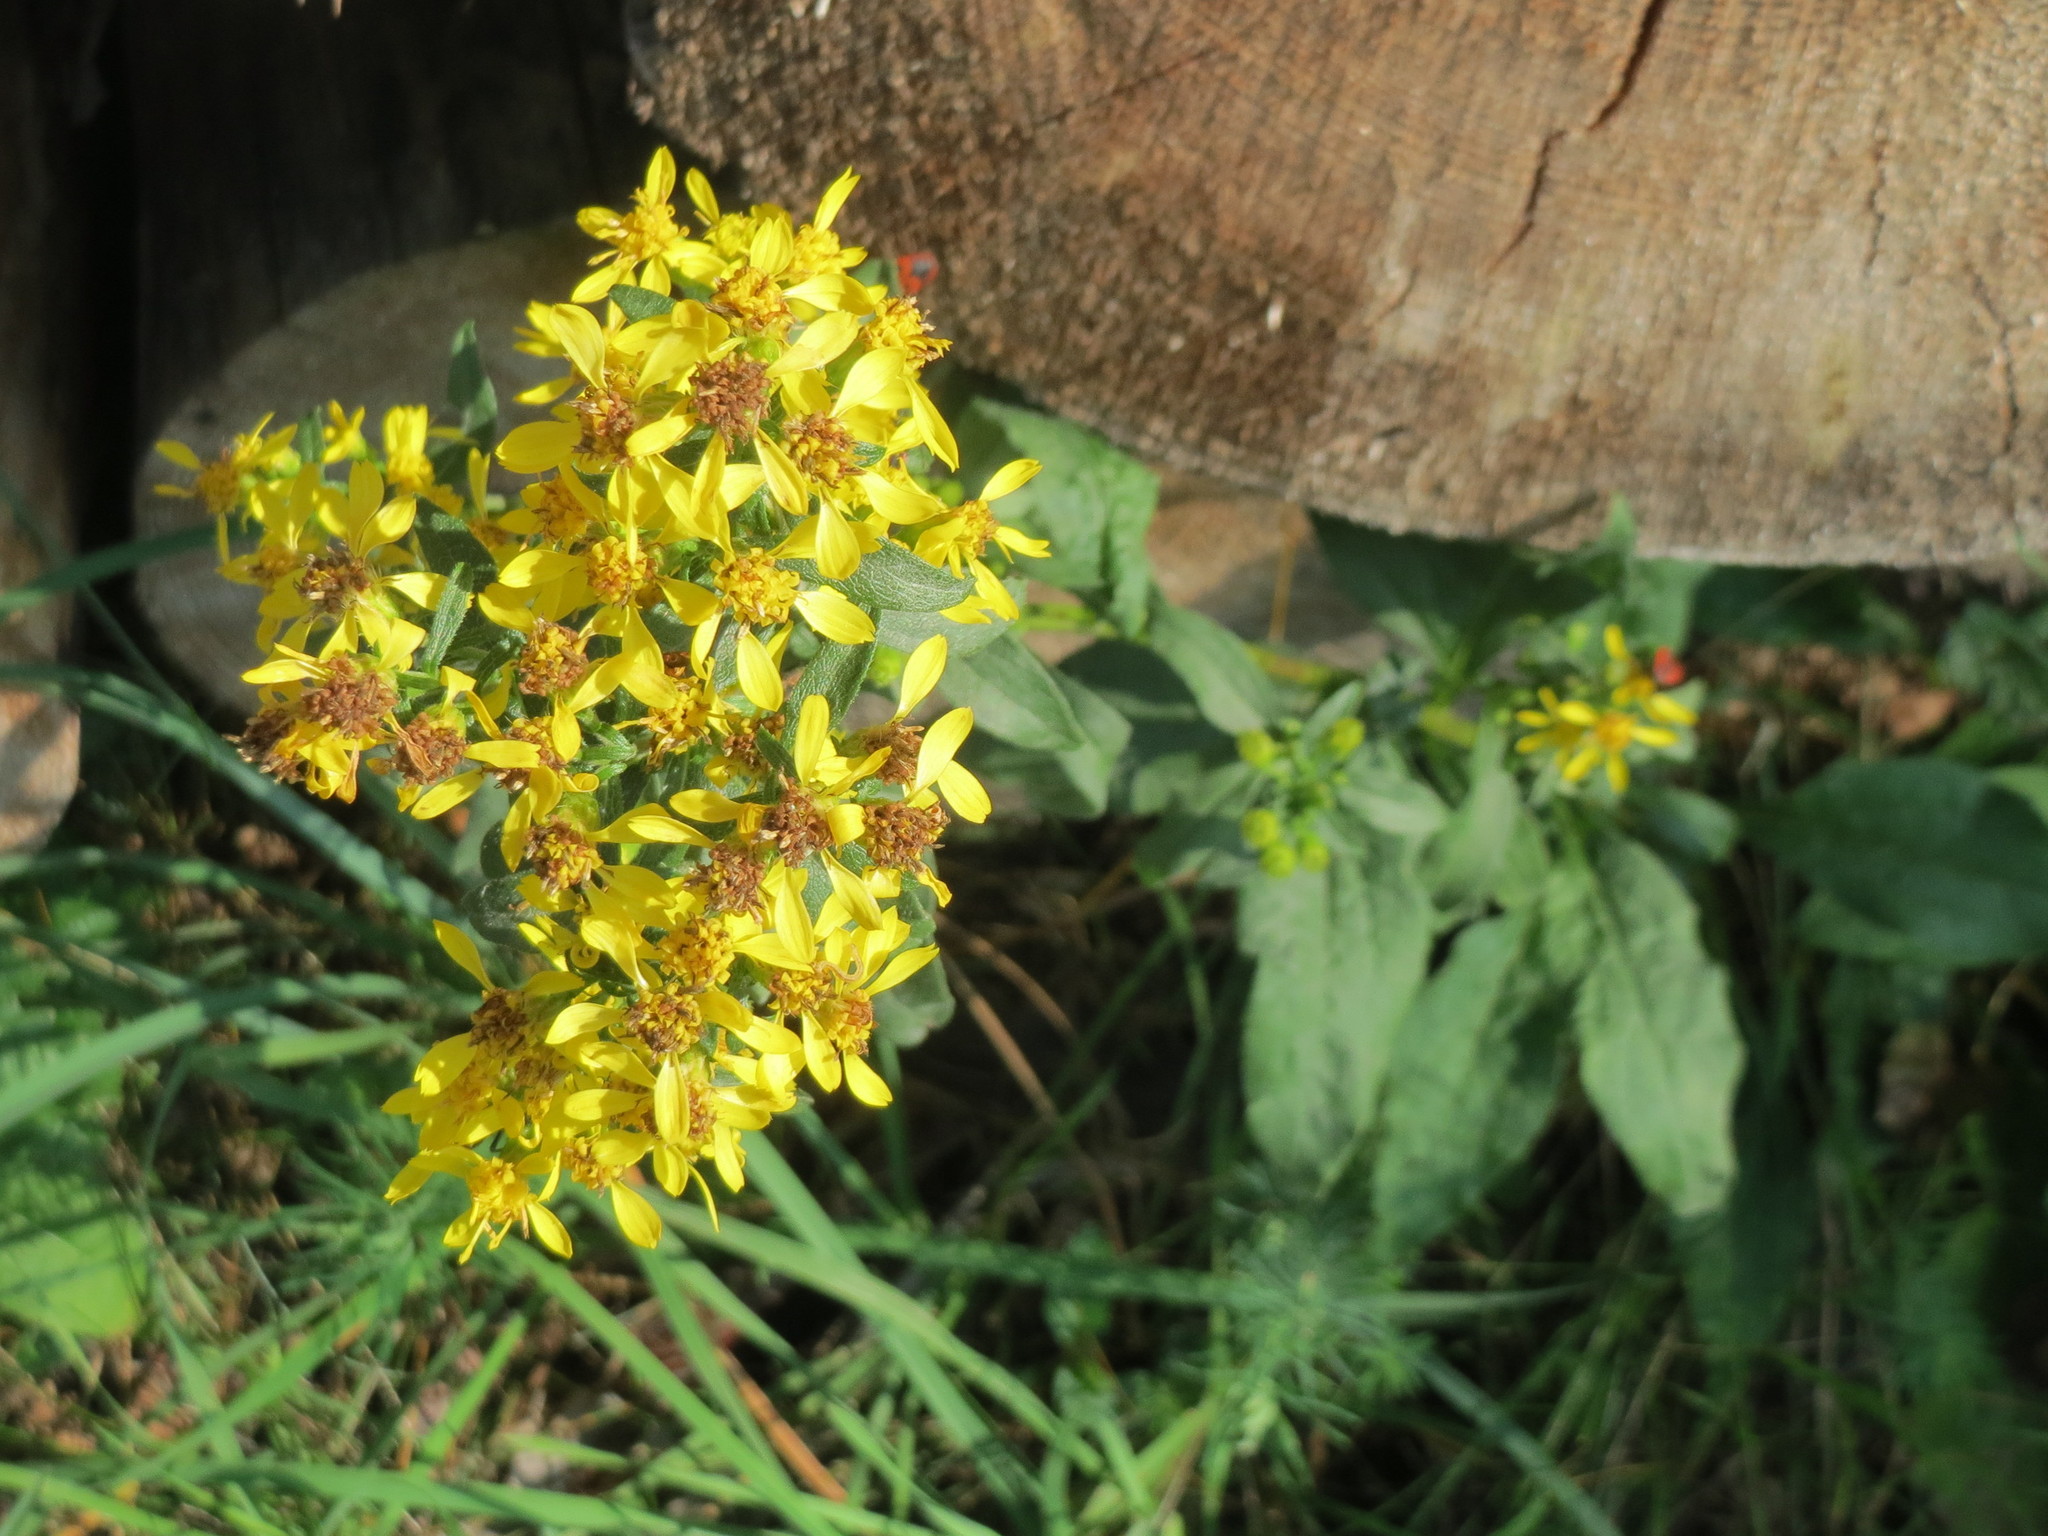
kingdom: Plantae
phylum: Tracheophyta
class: Magnoliopsida
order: Asterales
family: Asteraceae
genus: Solidago
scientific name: Solidago virgaurea
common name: Goldenrod
